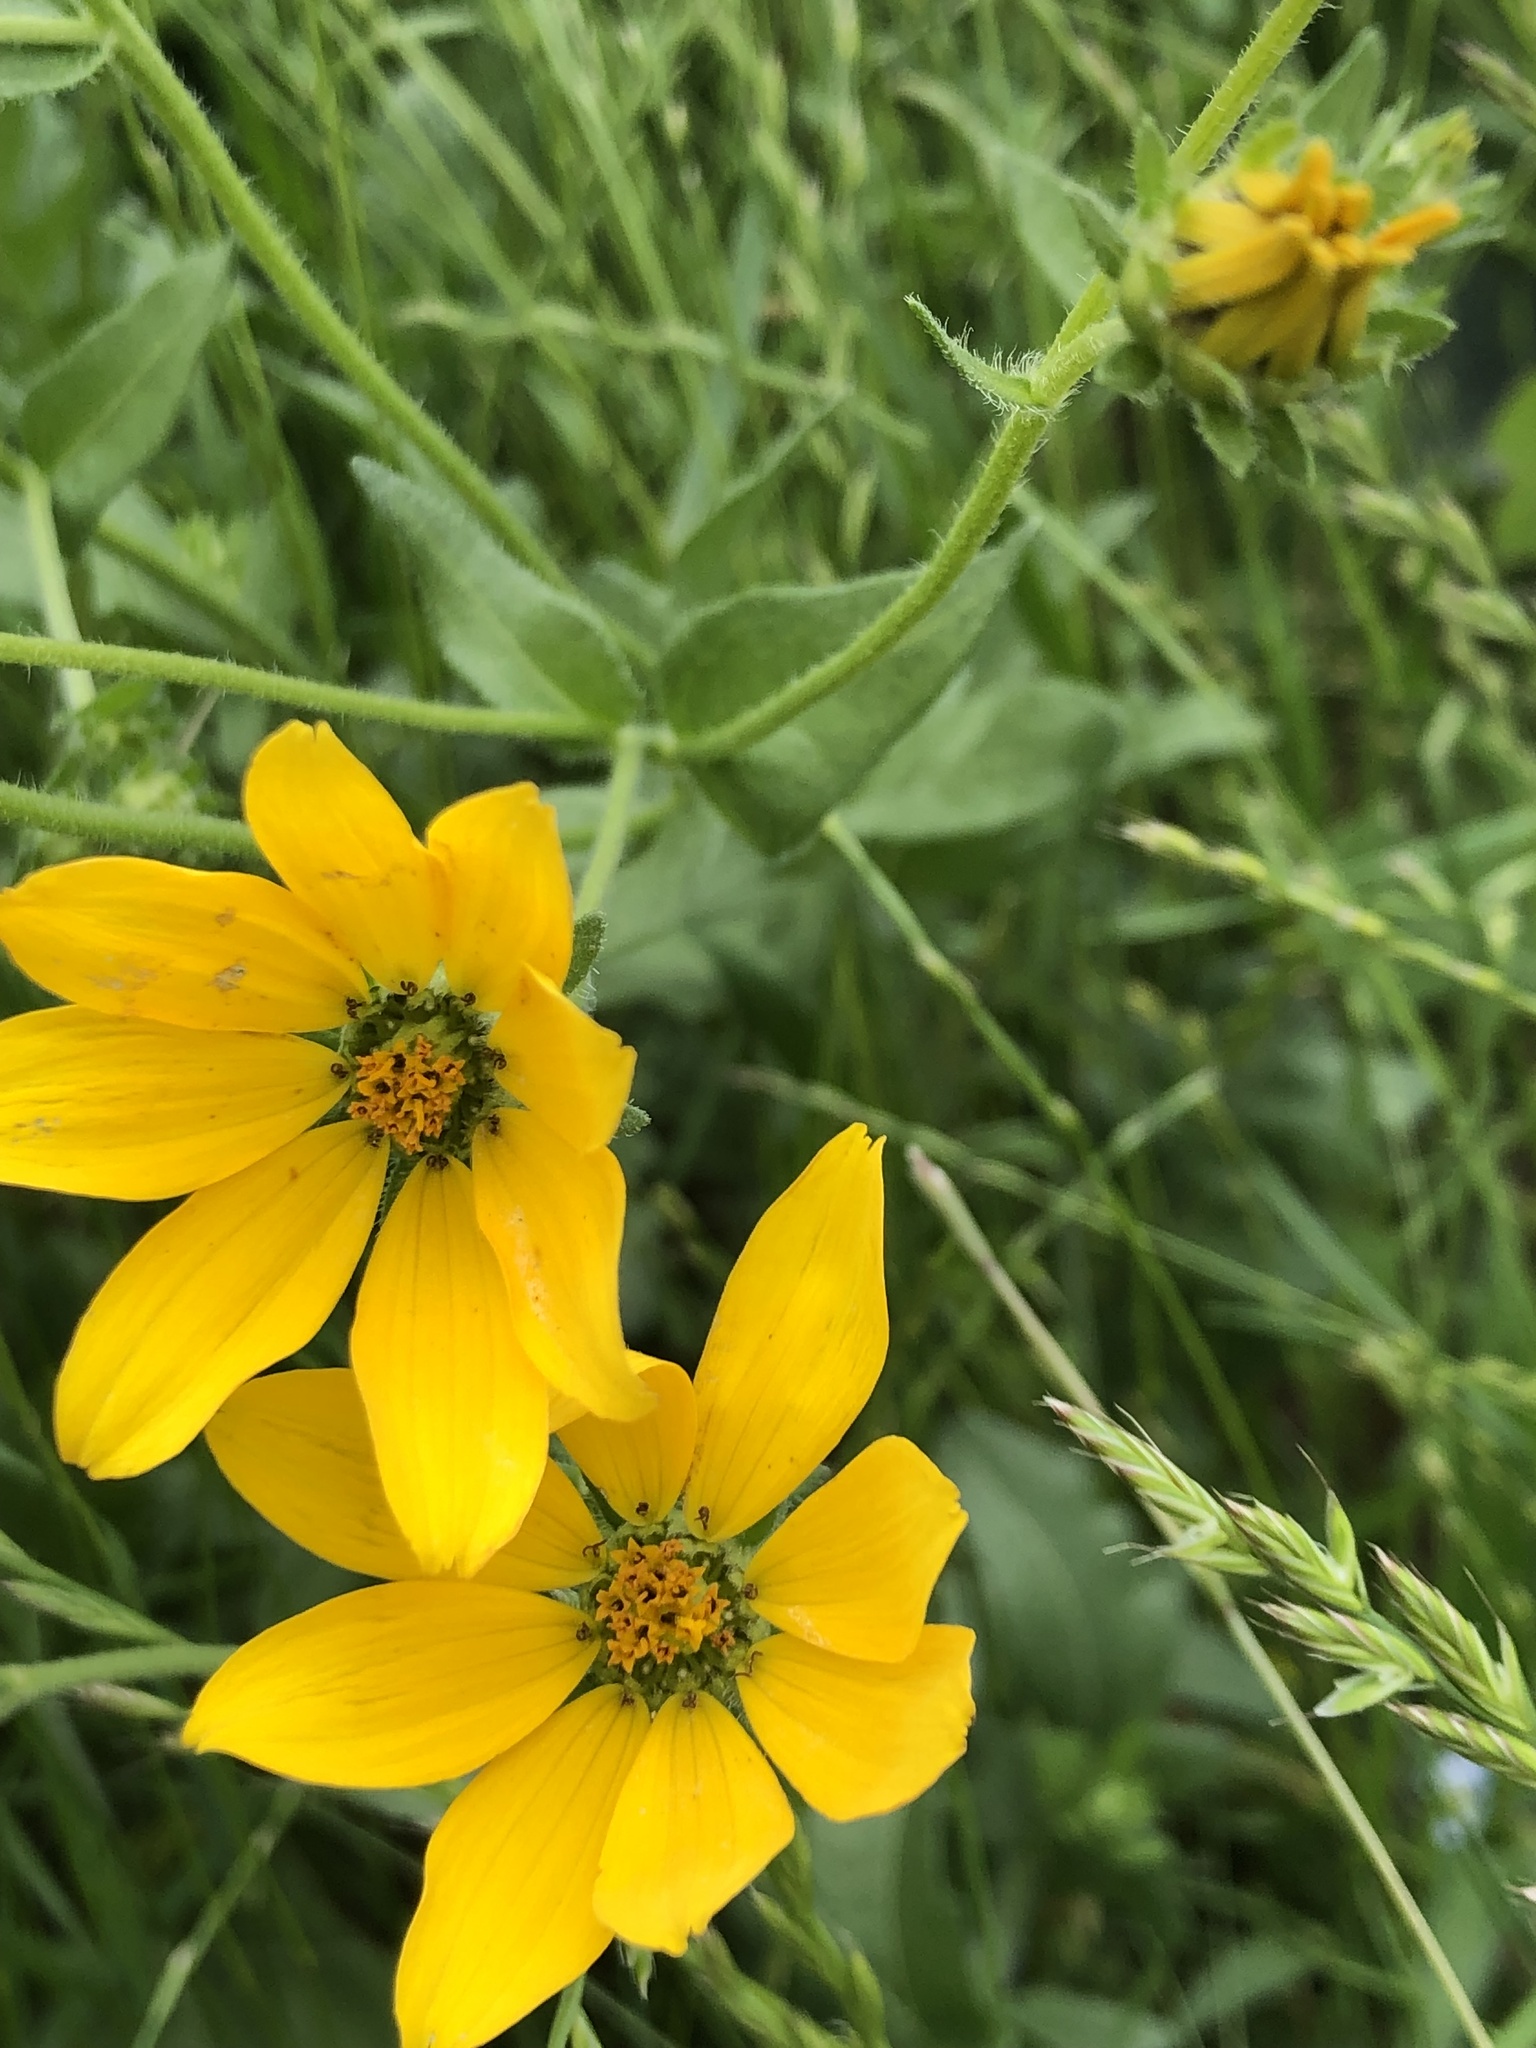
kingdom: Plantae
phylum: Tracheophyta
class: Magnoliopsida
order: Asterales
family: Asteraceae
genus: Engelmannia
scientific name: Engelmannia peristenia
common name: Engelmann's daisy
